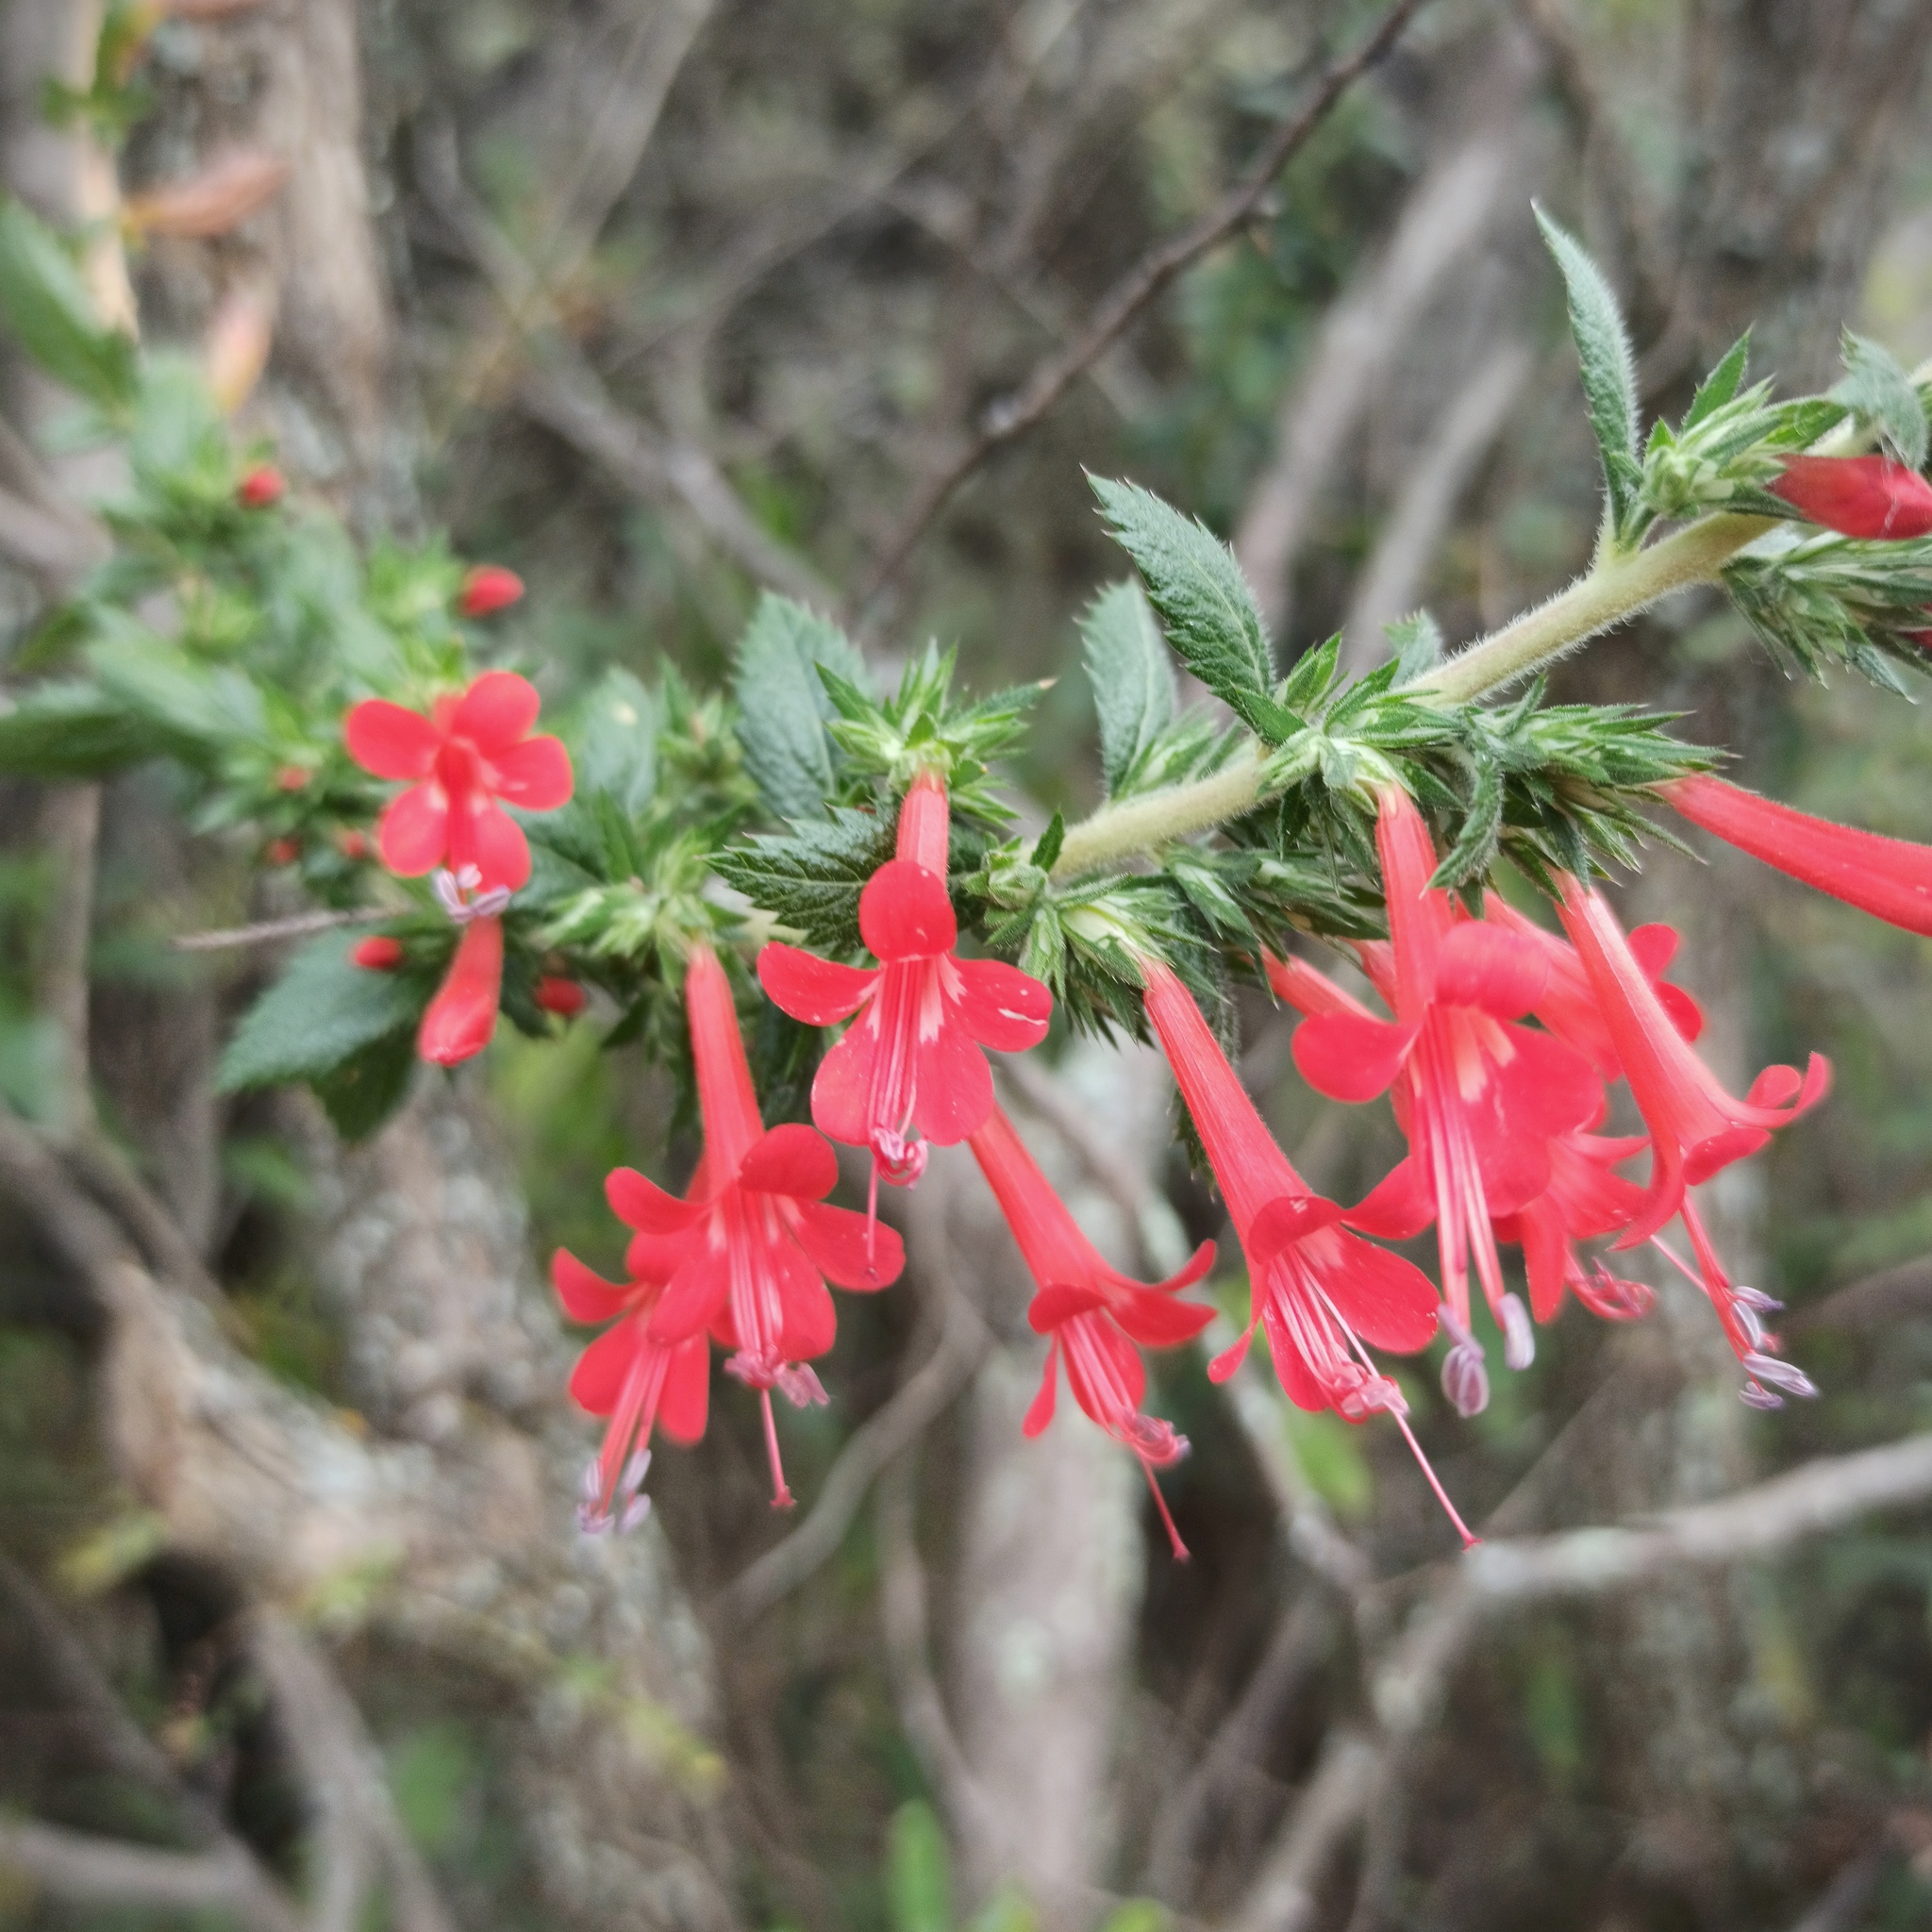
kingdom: Plantae
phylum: Tracheophyta
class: Magnoliopsida
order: Ericales
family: Polemoniaceae
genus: Loeselia
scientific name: Loeselia mexicana
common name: Mexican false calico
